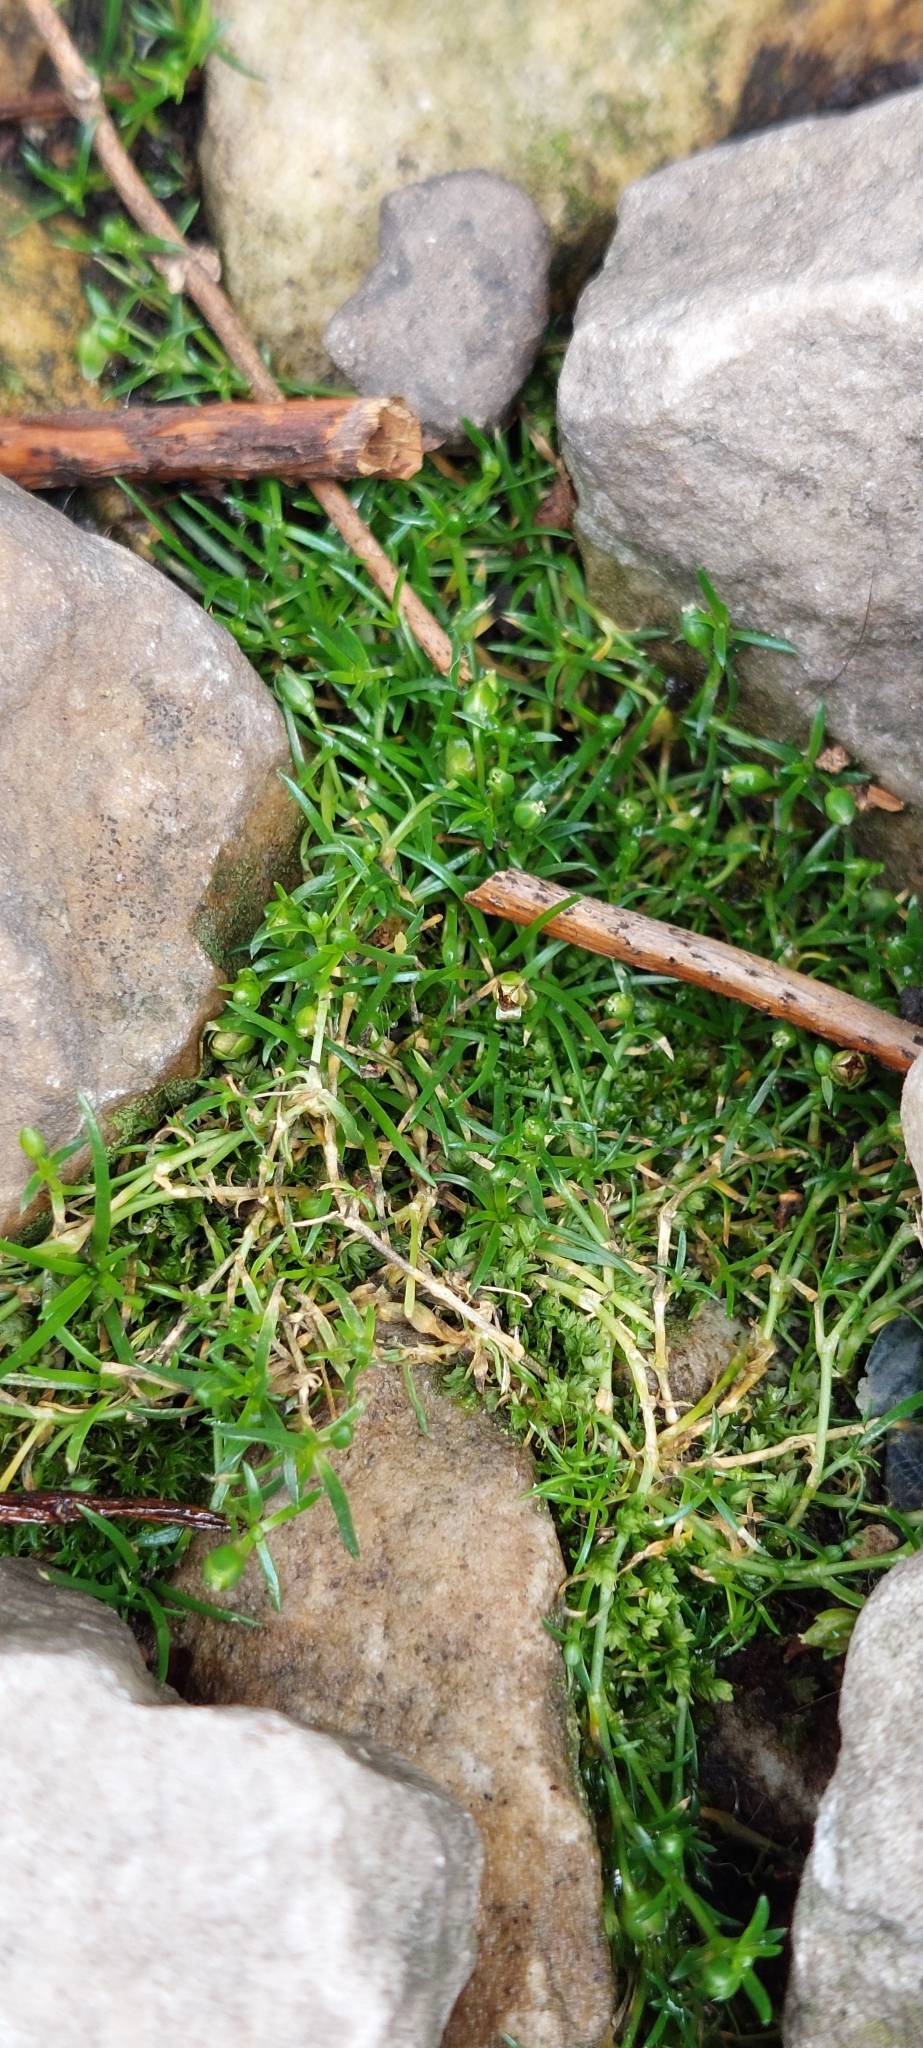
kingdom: Plantae
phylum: Tracheophyta
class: Magnoliopsida
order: Caryophyllales
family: Caryophyllaceae
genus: Sagina
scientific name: Sagina procumbens
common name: Procumbent pearlwort
